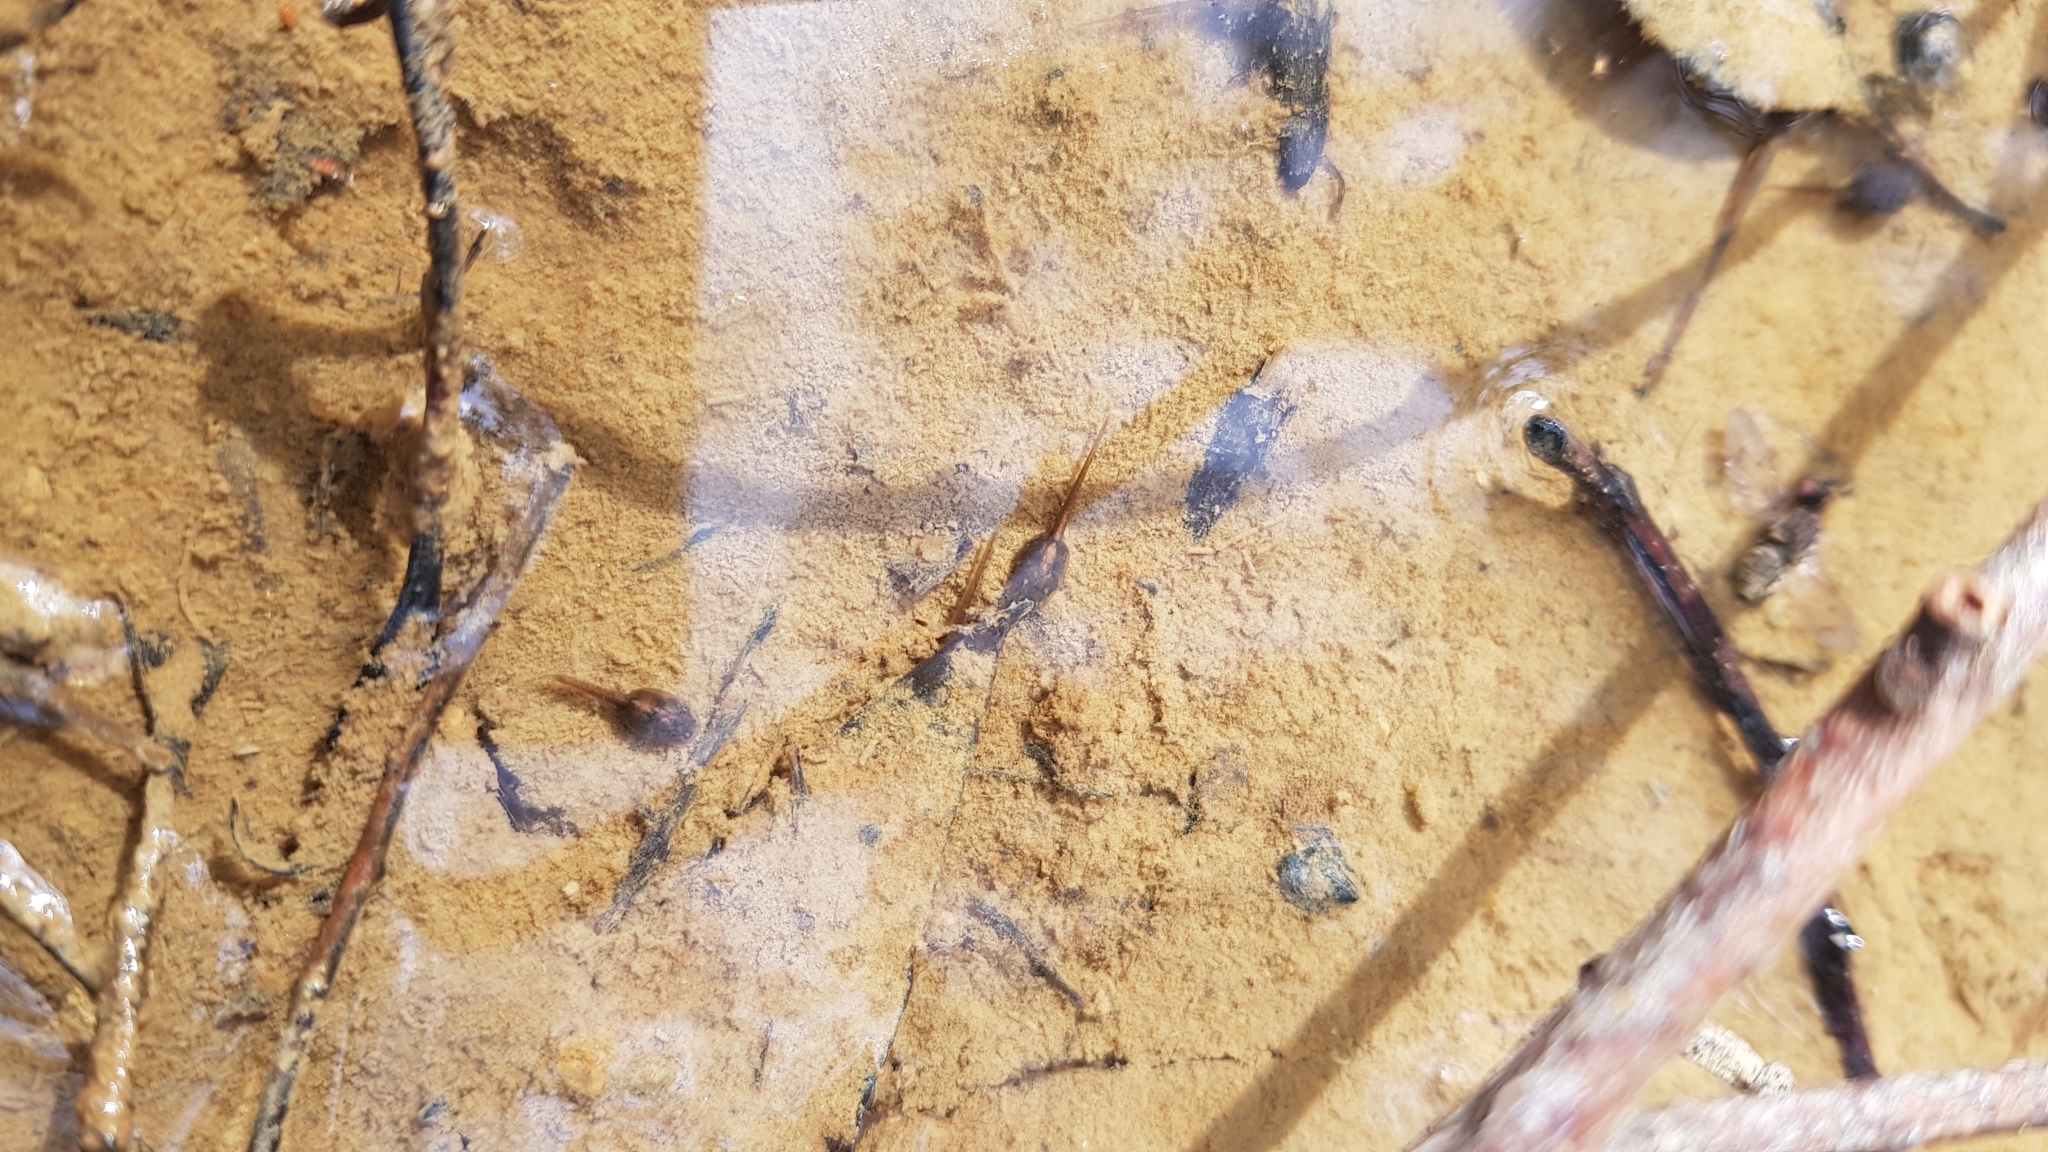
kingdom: Animalia
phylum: Chordata
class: Amphibia
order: Anura
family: Myobatrachidae
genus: Pseudophryne
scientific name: Pseudophryne australis
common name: Red-crowned toadlet
